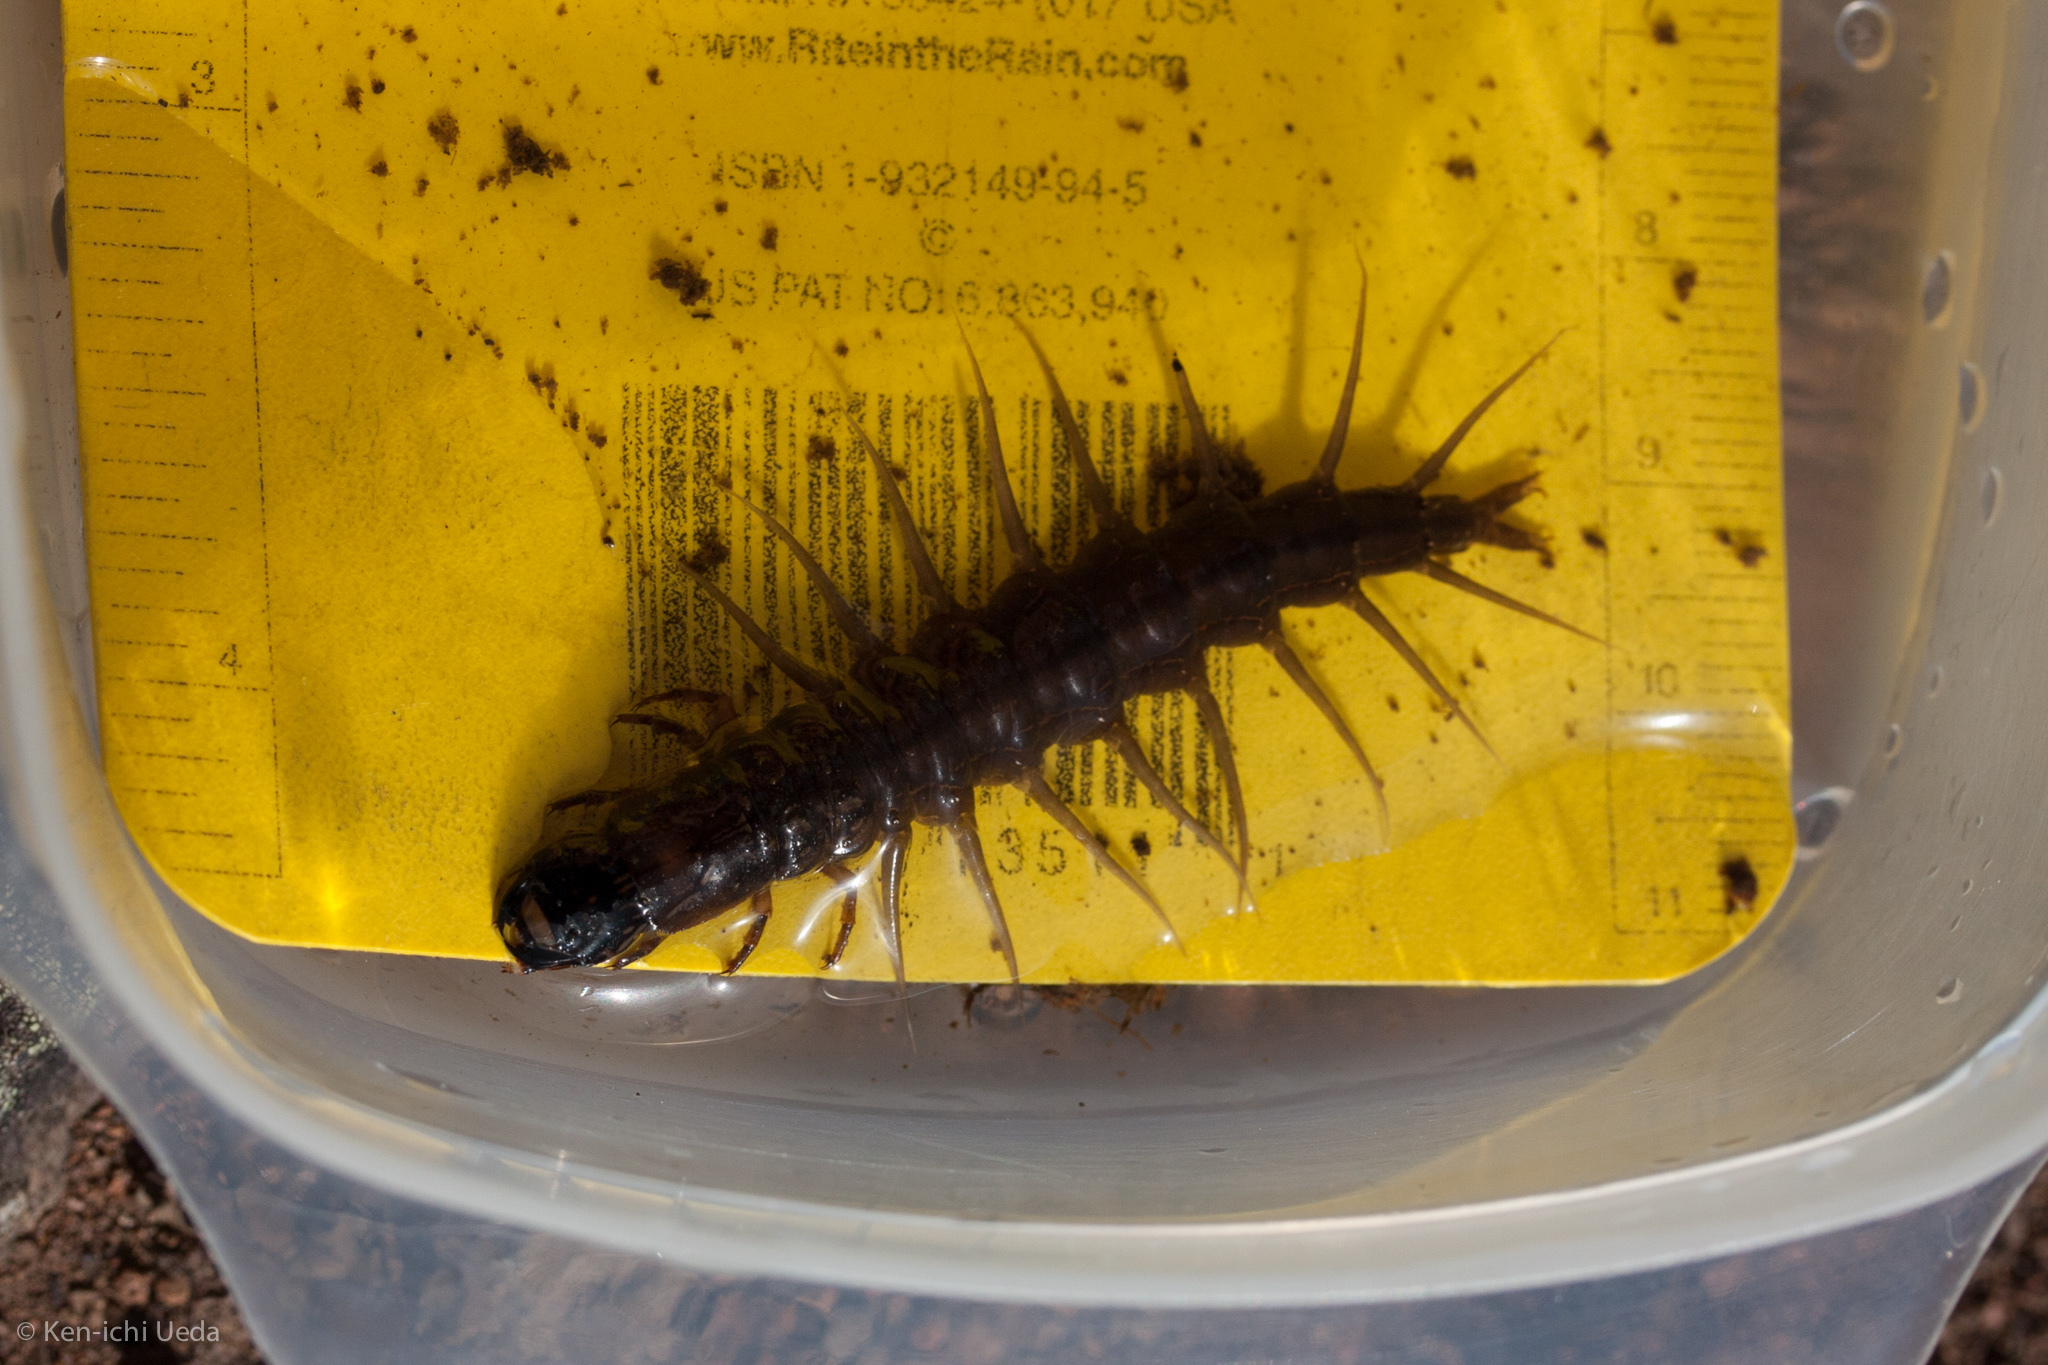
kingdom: Animalia
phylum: Arthropoda
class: Insecta
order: Megaloptera
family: Corydalidae
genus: Neohermes
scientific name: Neohermes californicus
